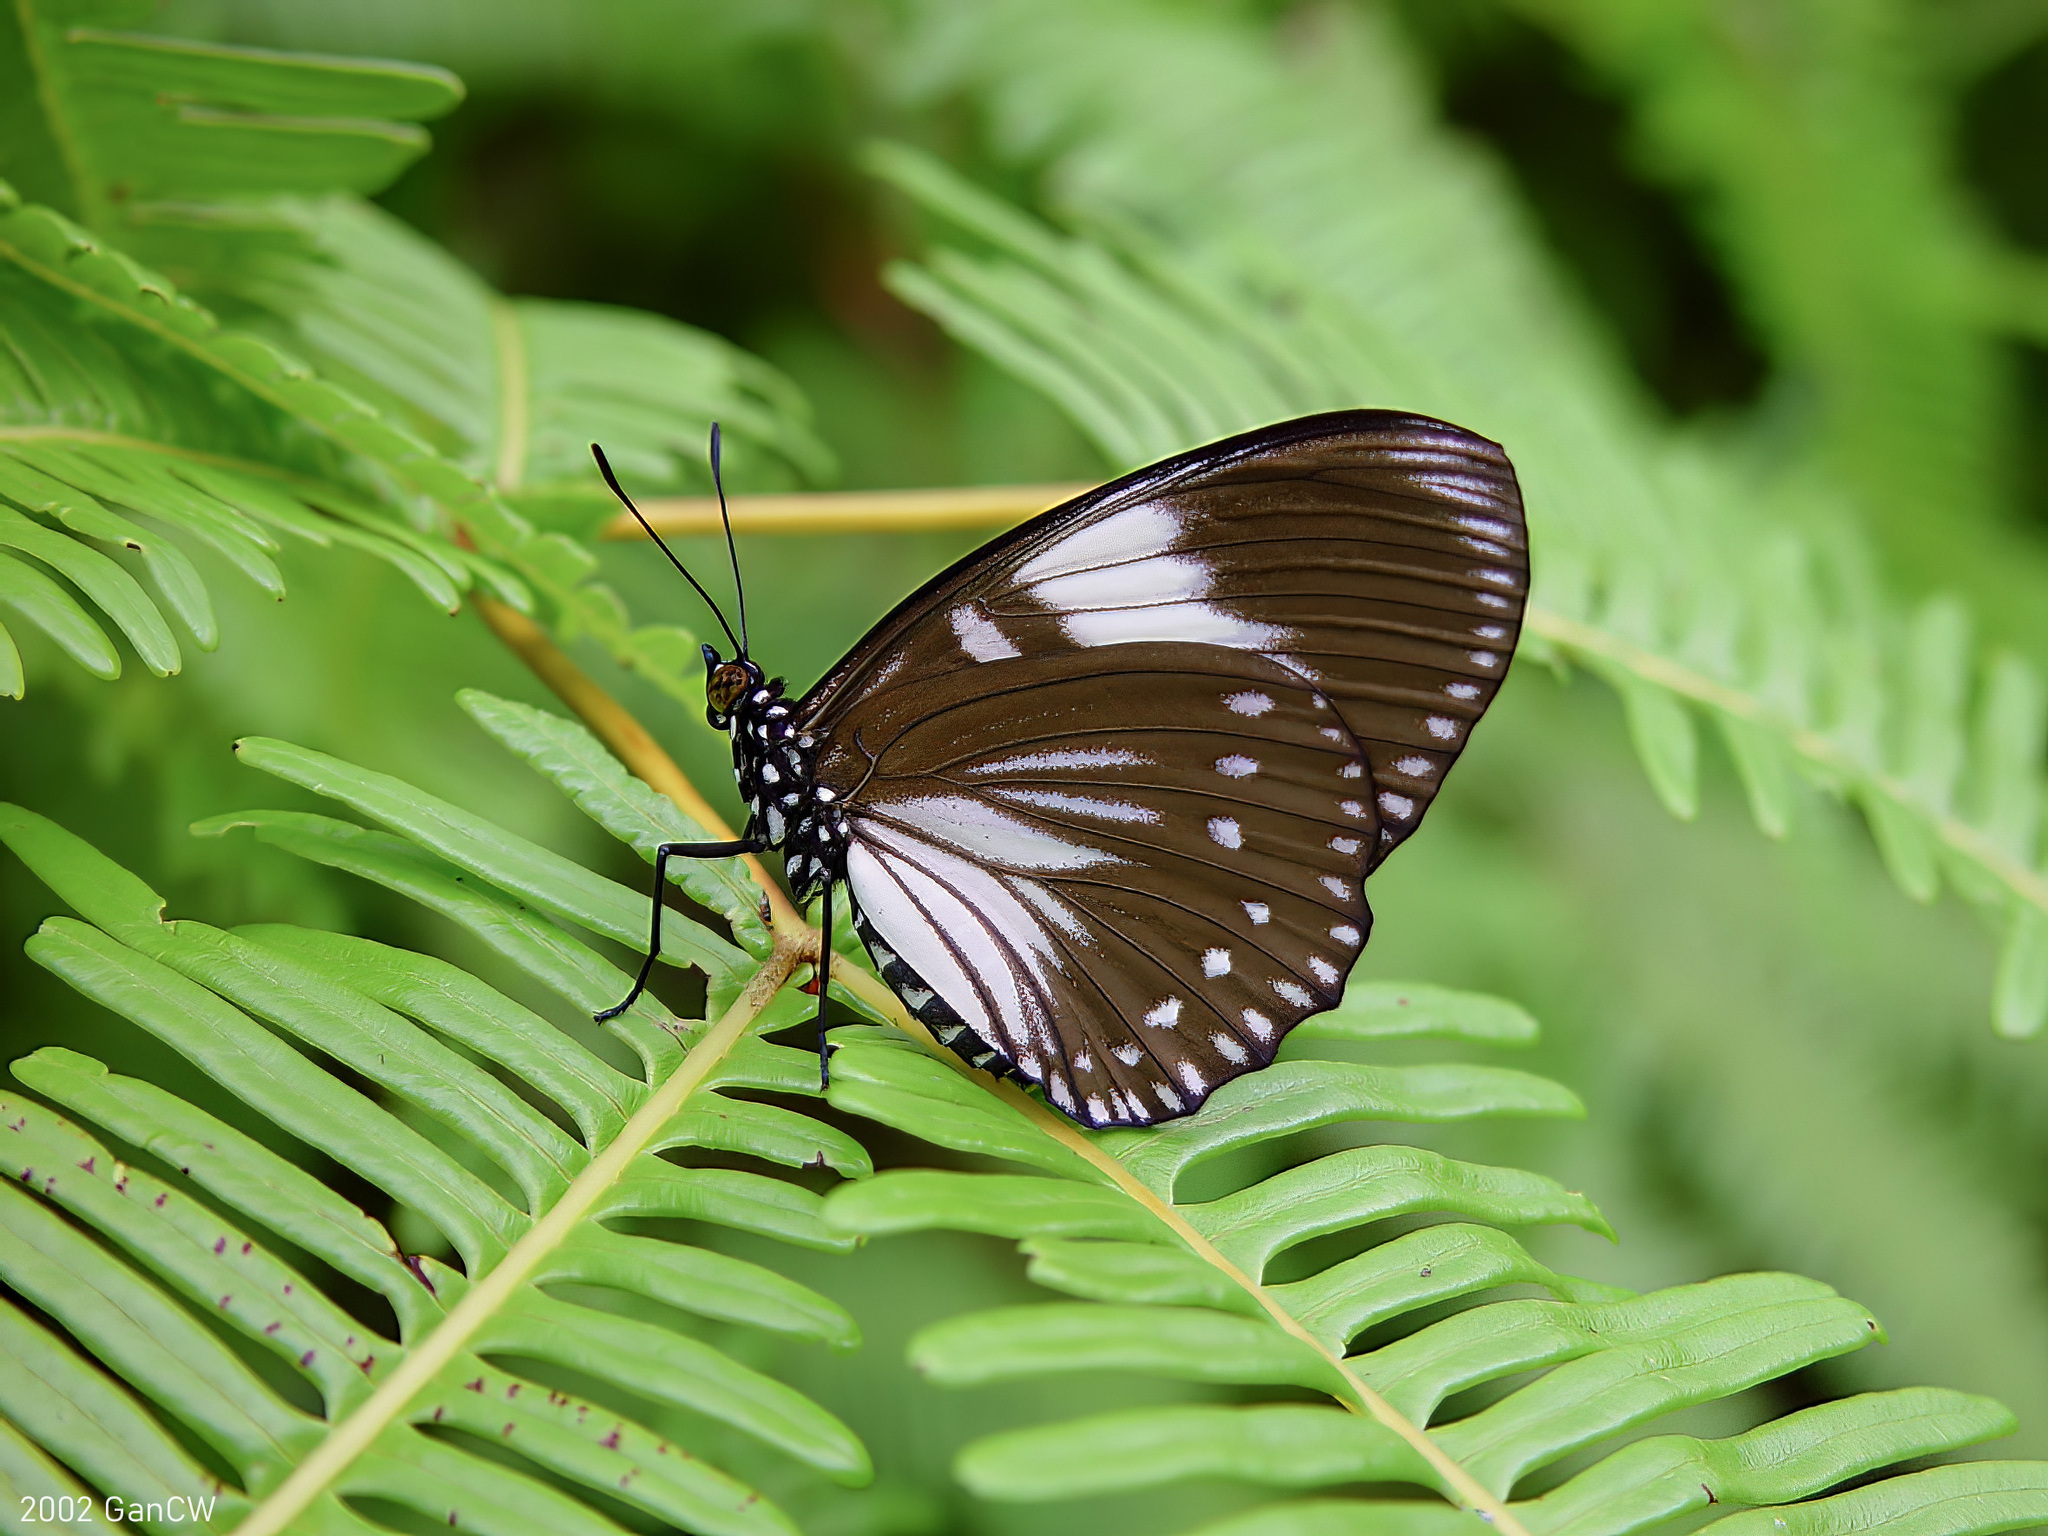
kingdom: Animalia
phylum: Arthropoda
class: Insecta
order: Lepidoptera
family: Nymphalidae
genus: Euripus
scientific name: Euripus nyctelius
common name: Courtesan
